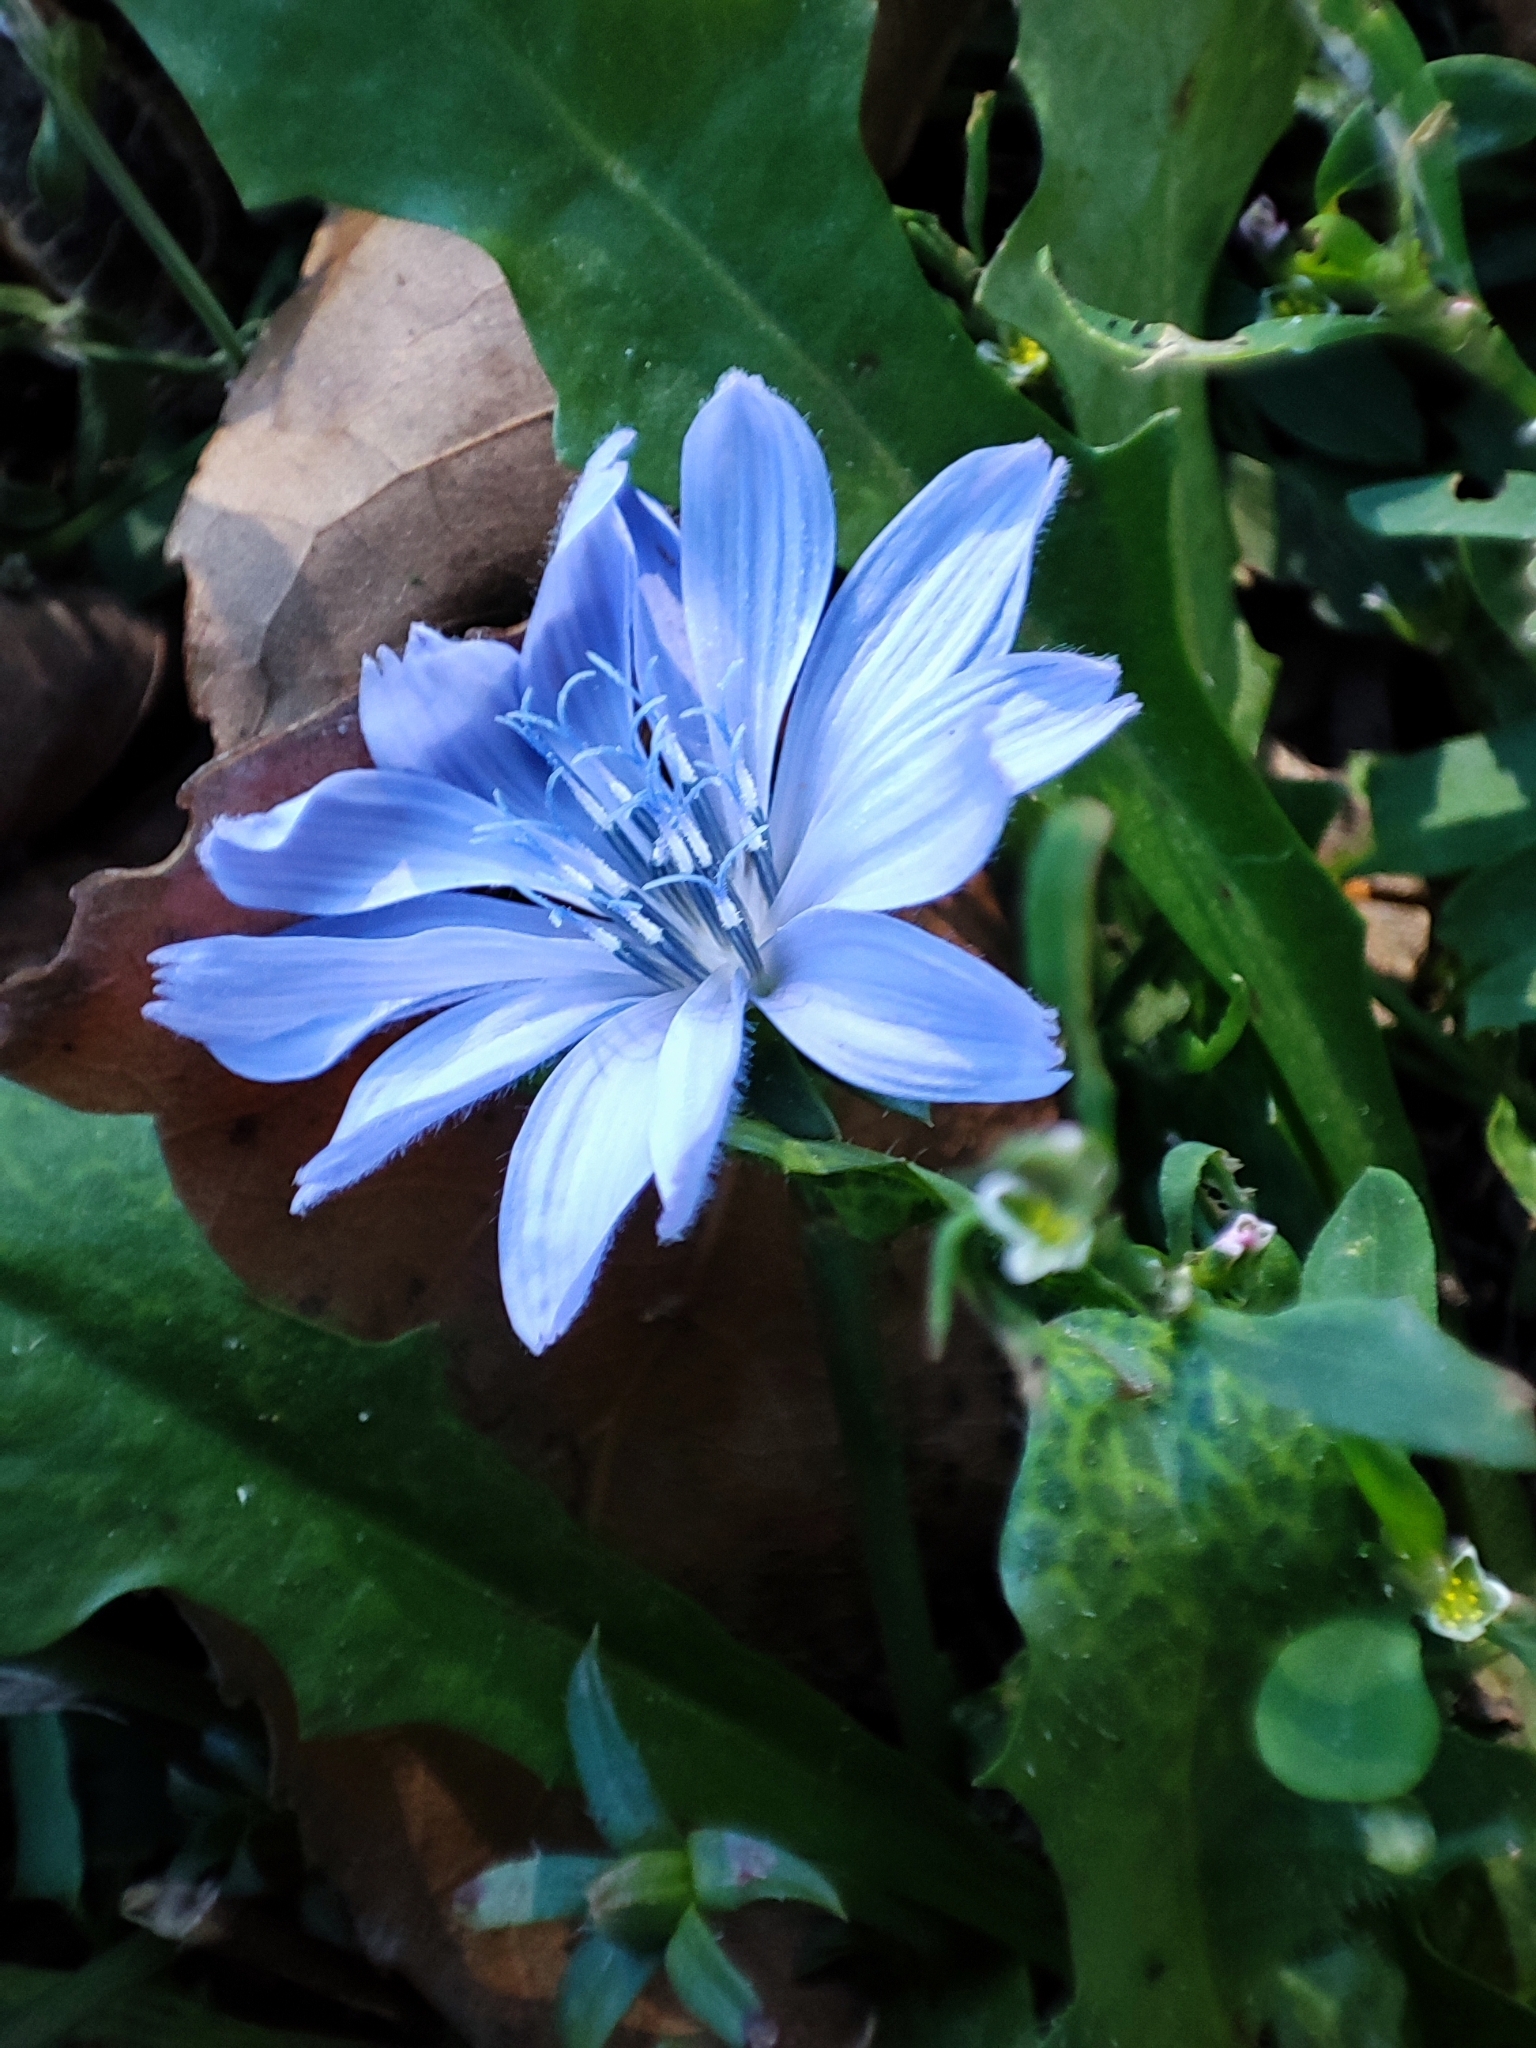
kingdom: Plantae
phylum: Tracheophyta
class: Magnoliopsida
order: Asterales
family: Asteraceae
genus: Cichorium
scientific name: Cichorium intybus
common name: Chicory
